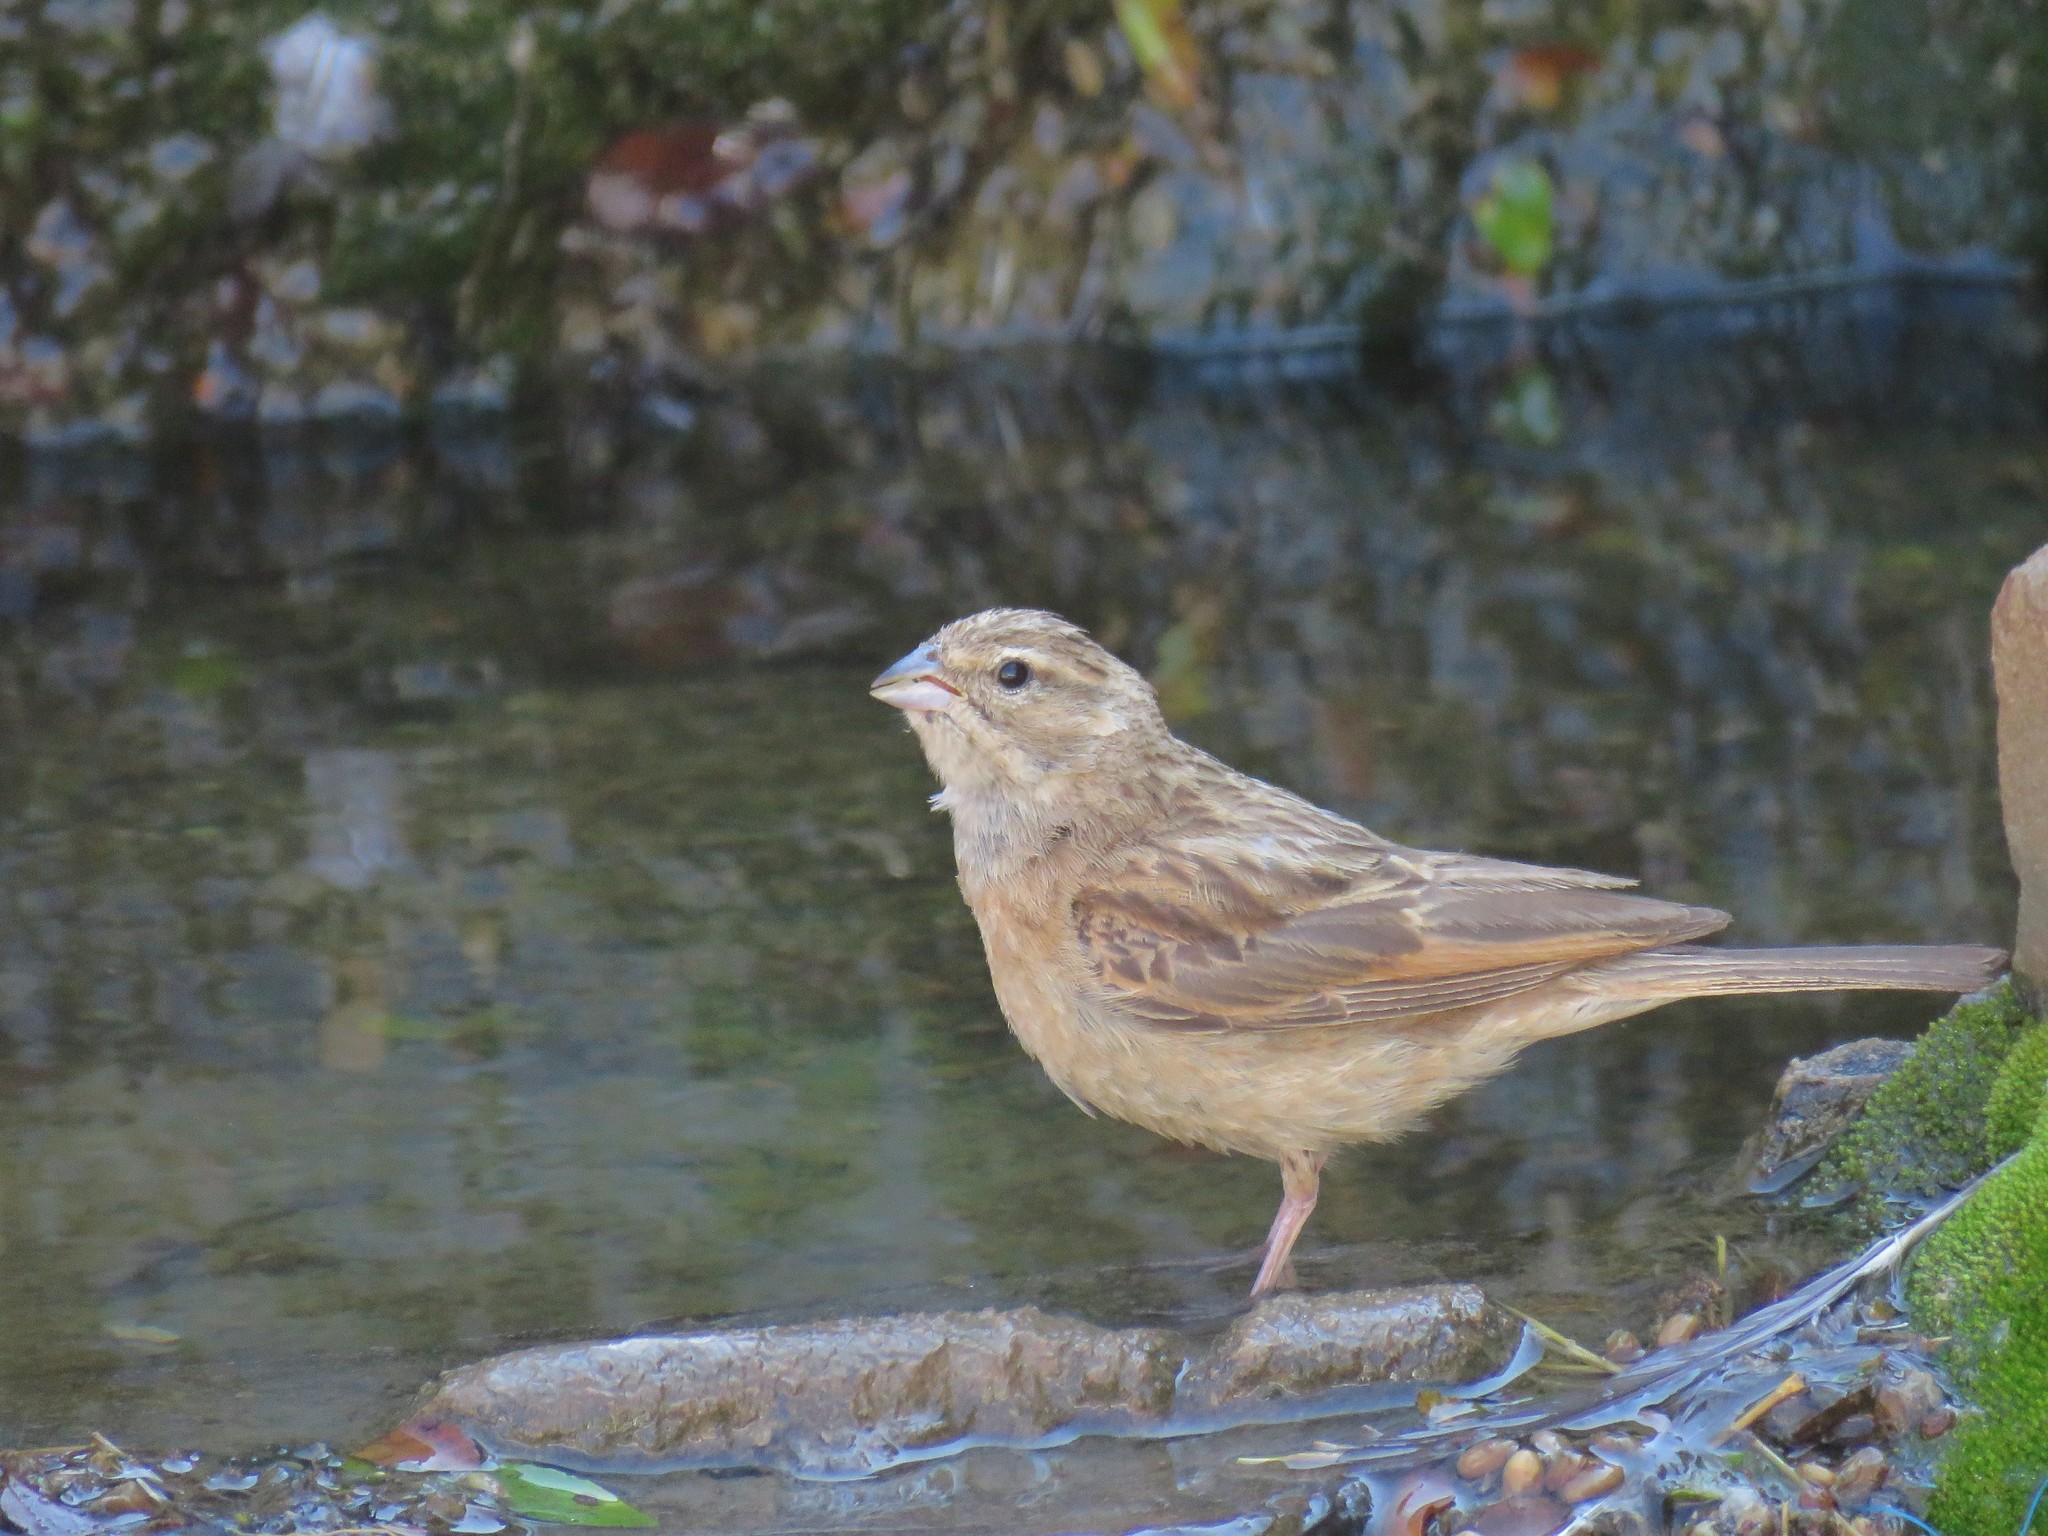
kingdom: Animalia
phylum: Chordata
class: Aves
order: Passeriformes
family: Emberizidae
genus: Emberiza
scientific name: Emberiza impetuani
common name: Lark-like bunting
